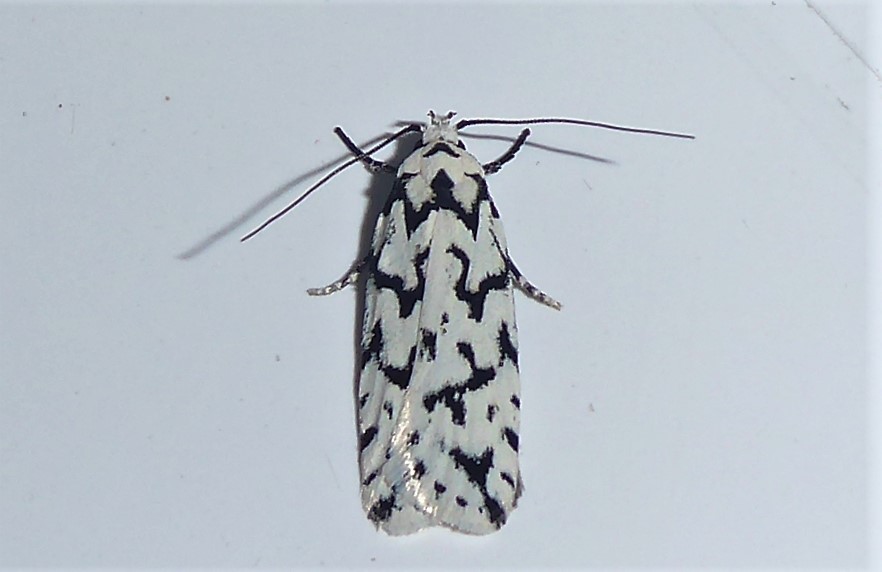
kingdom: Animalia
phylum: Arthropoda
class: Insecta
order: Lepidoptera
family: Oecophoridae
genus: Izatha
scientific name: Izatha katadiktya
